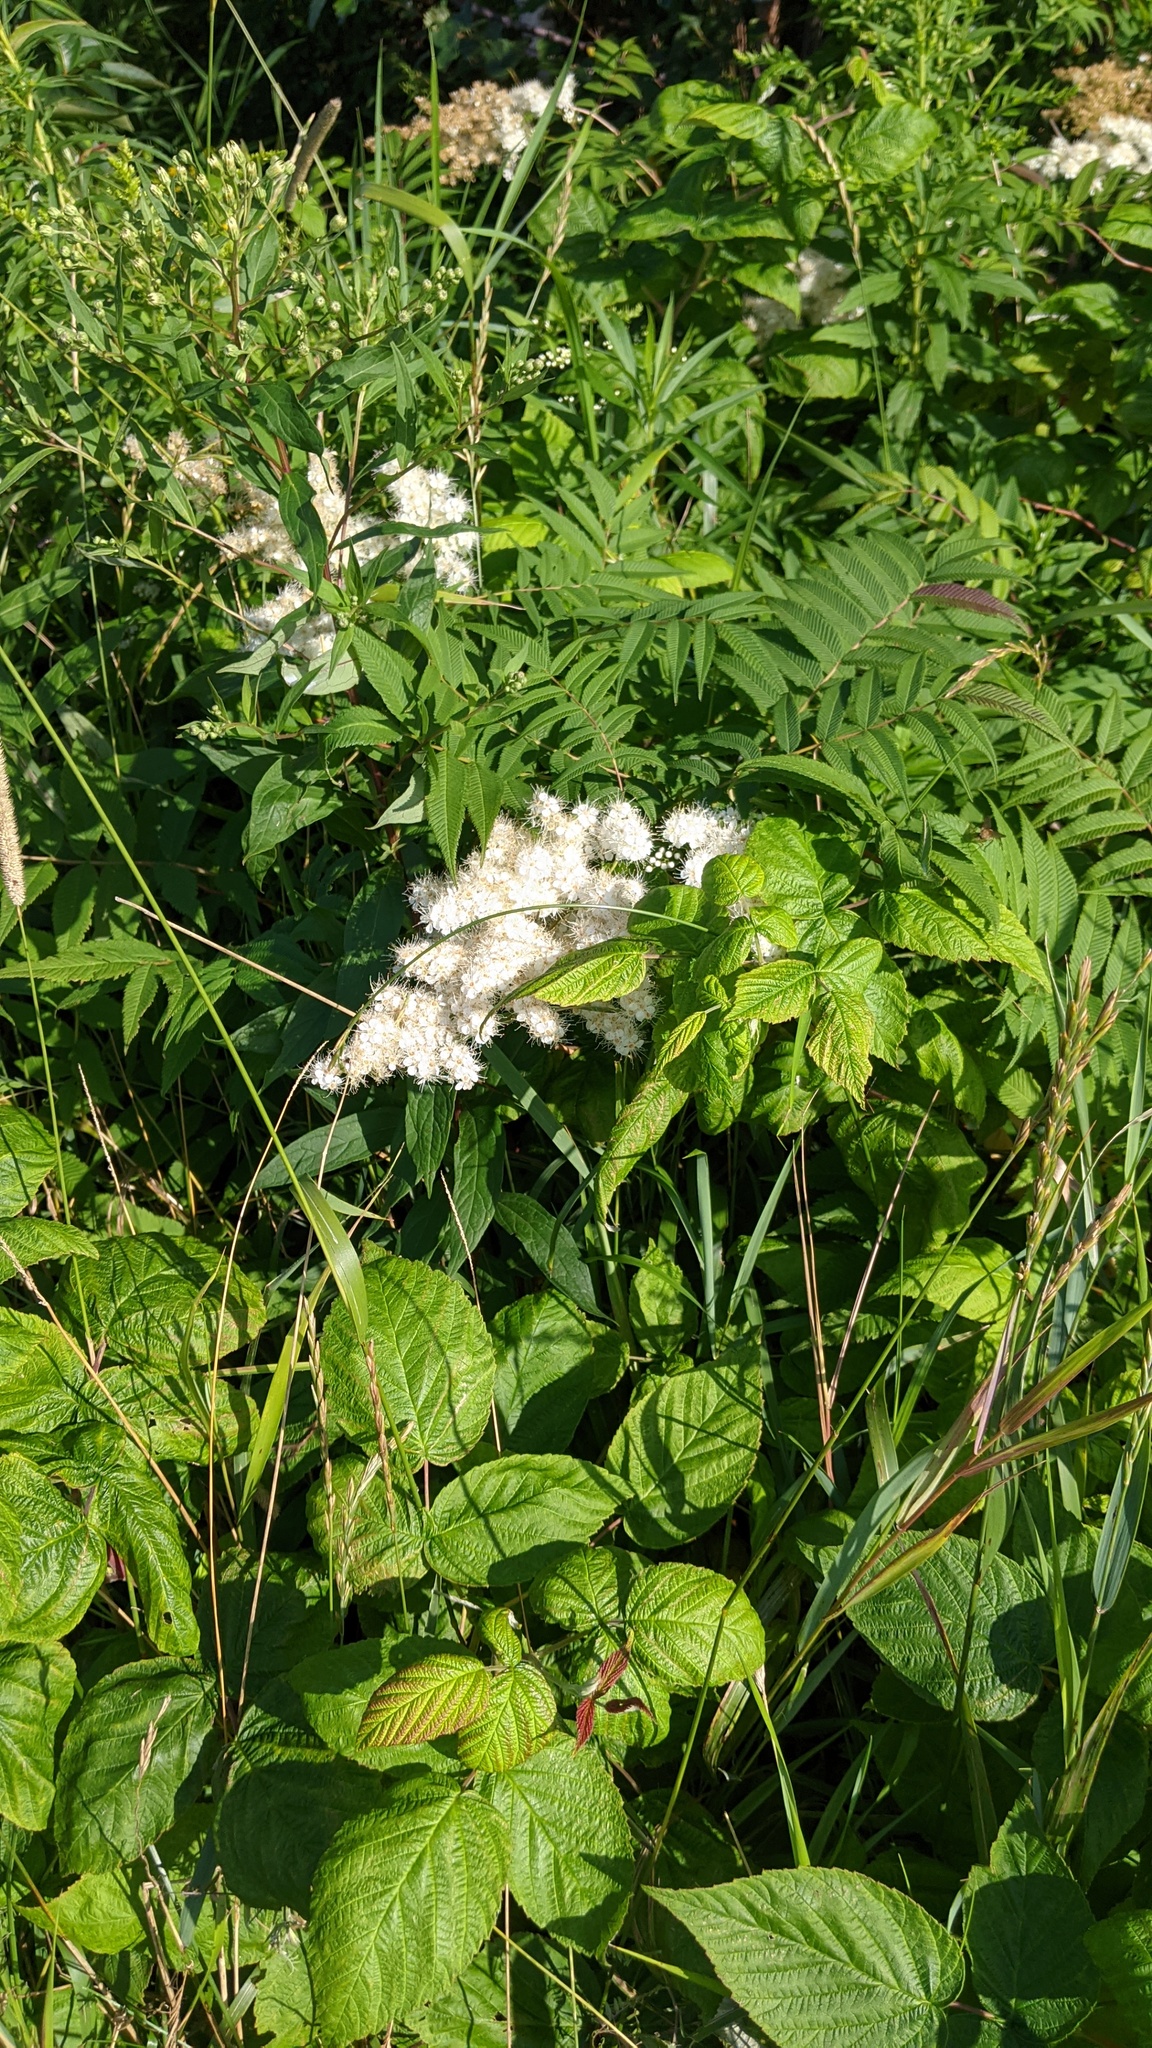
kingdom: Plantae
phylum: Tracheophyta
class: Magnoliopsida
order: Rosales
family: Rosaceae
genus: Sorbaria
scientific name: Sorbaria sorbifolia
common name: False spiraea
